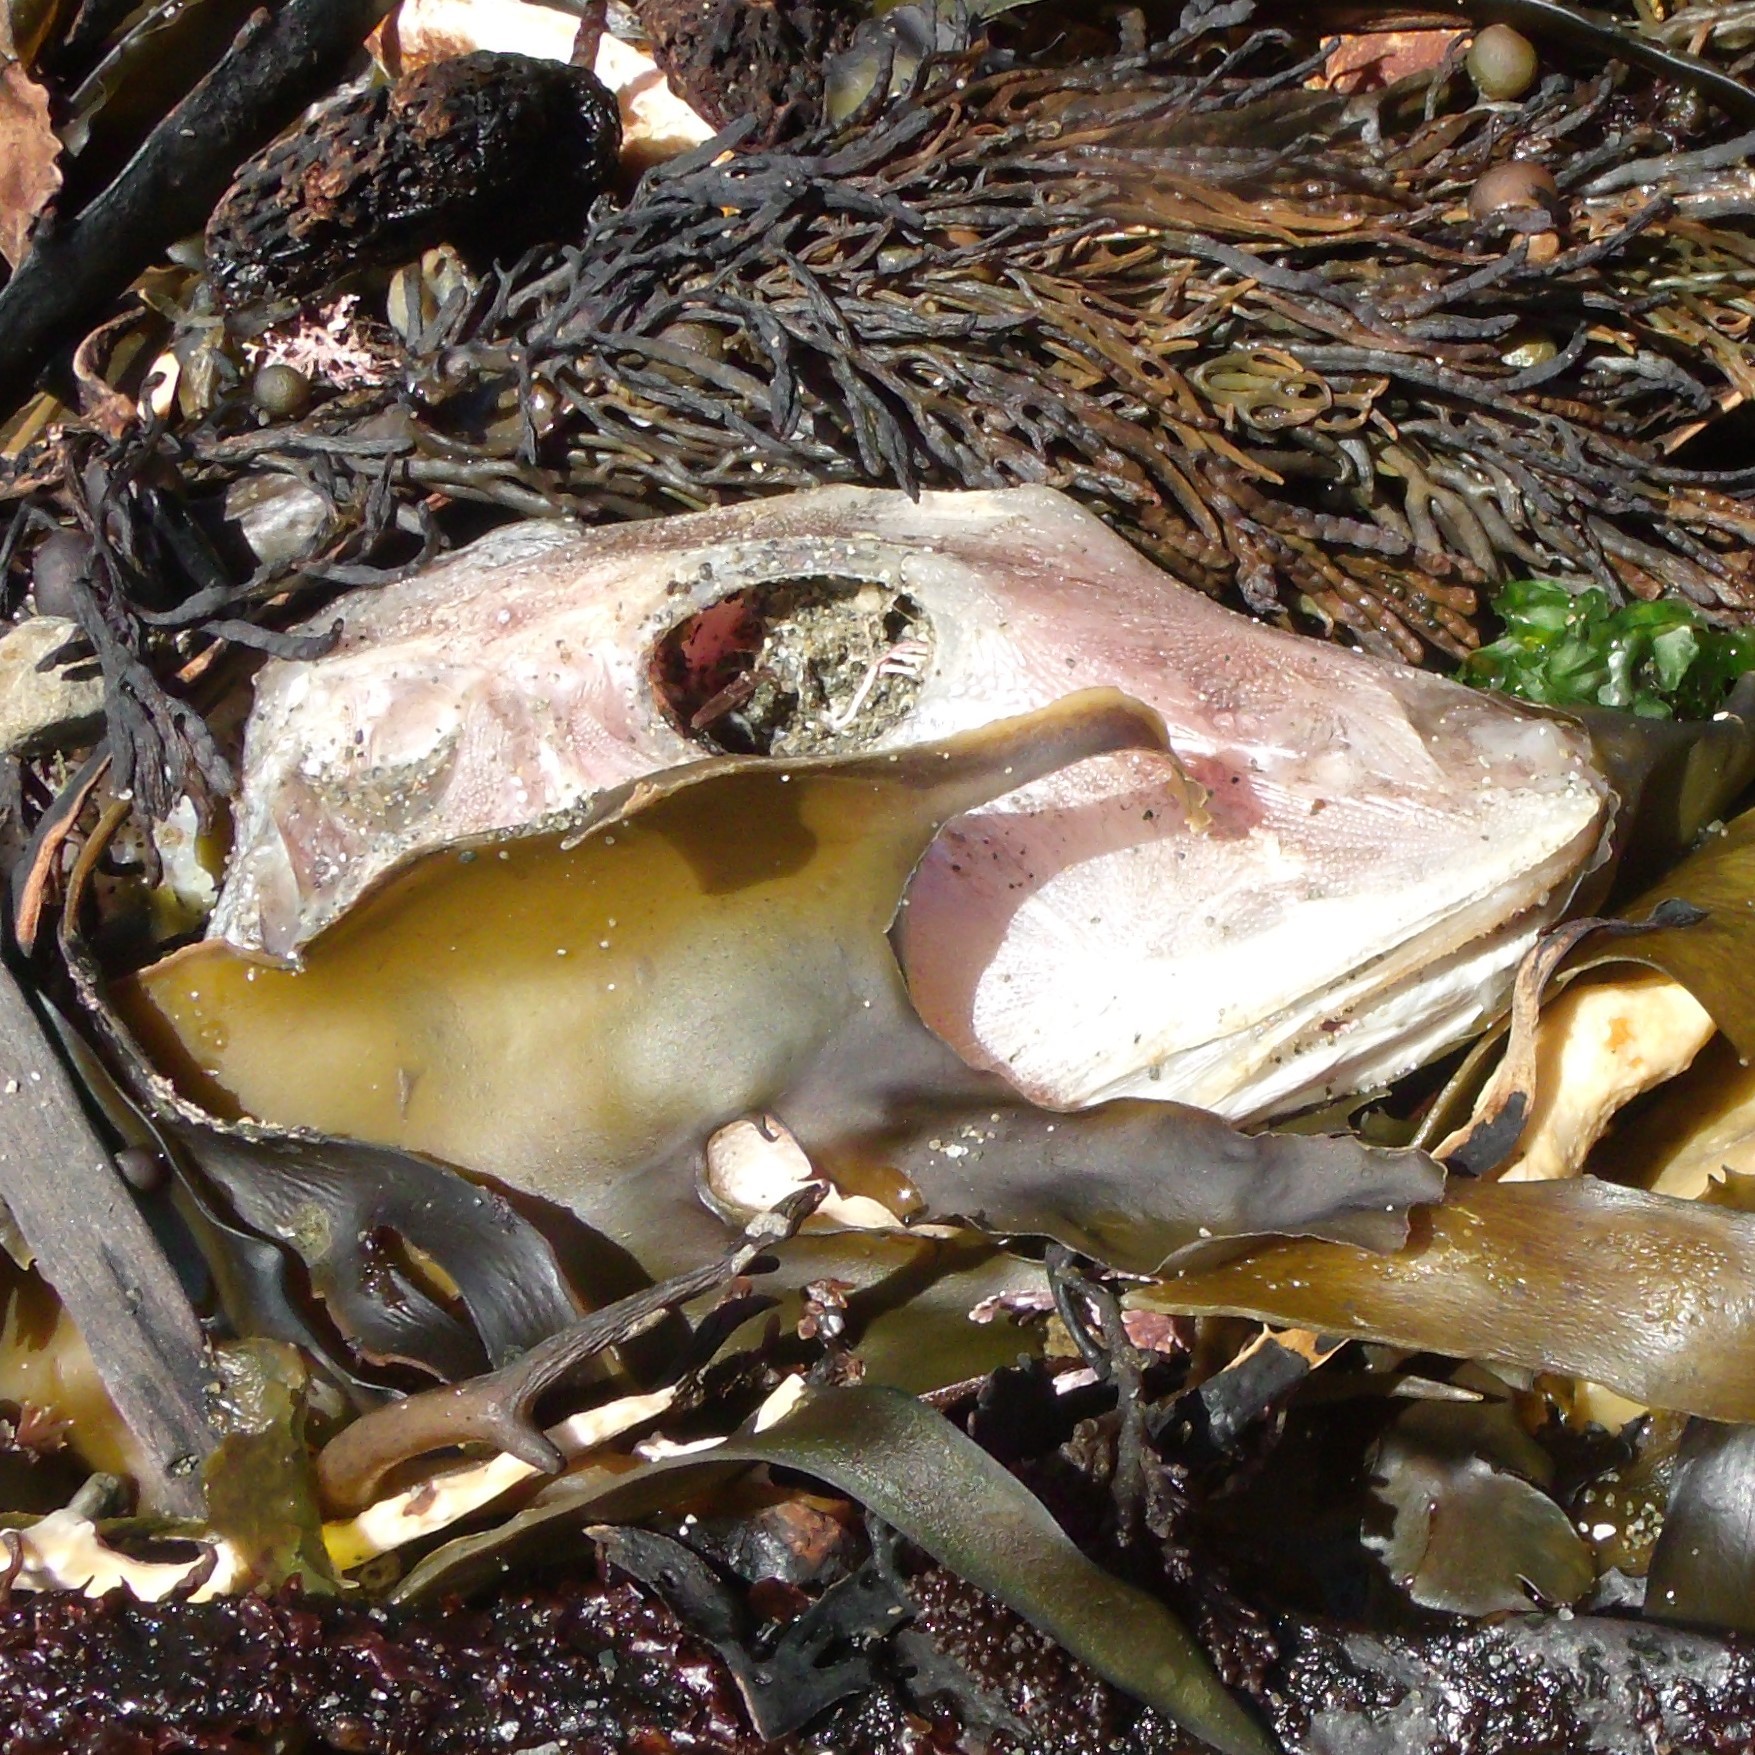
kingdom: Animalia
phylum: Chordata
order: Scorpaeniformes
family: Triglidae
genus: Chelidonichthys
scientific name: Chelidonichthys kumu
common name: Bluefin gurnard
